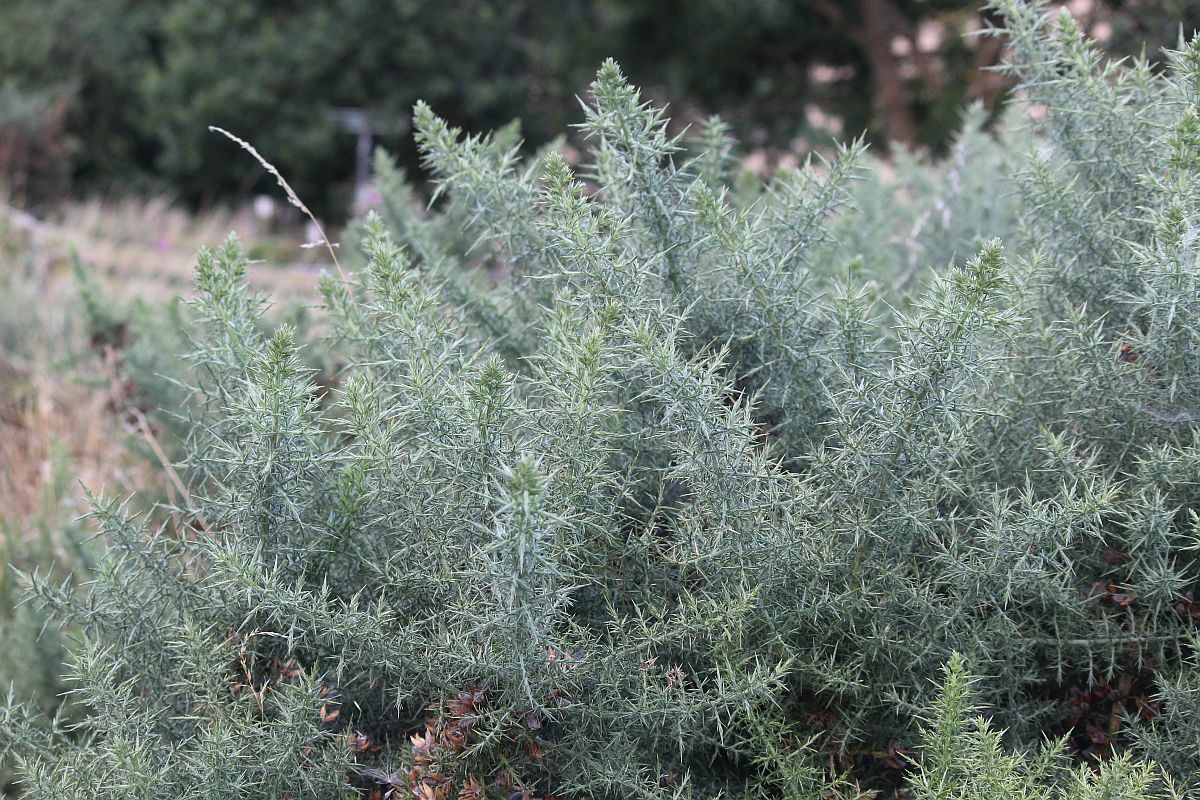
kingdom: Plantae
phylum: Tracheophyta
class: Magnoliopsida
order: Fabales
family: Fabaceae
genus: Ulex
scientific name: Ulex europaeus
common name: Common gorse
